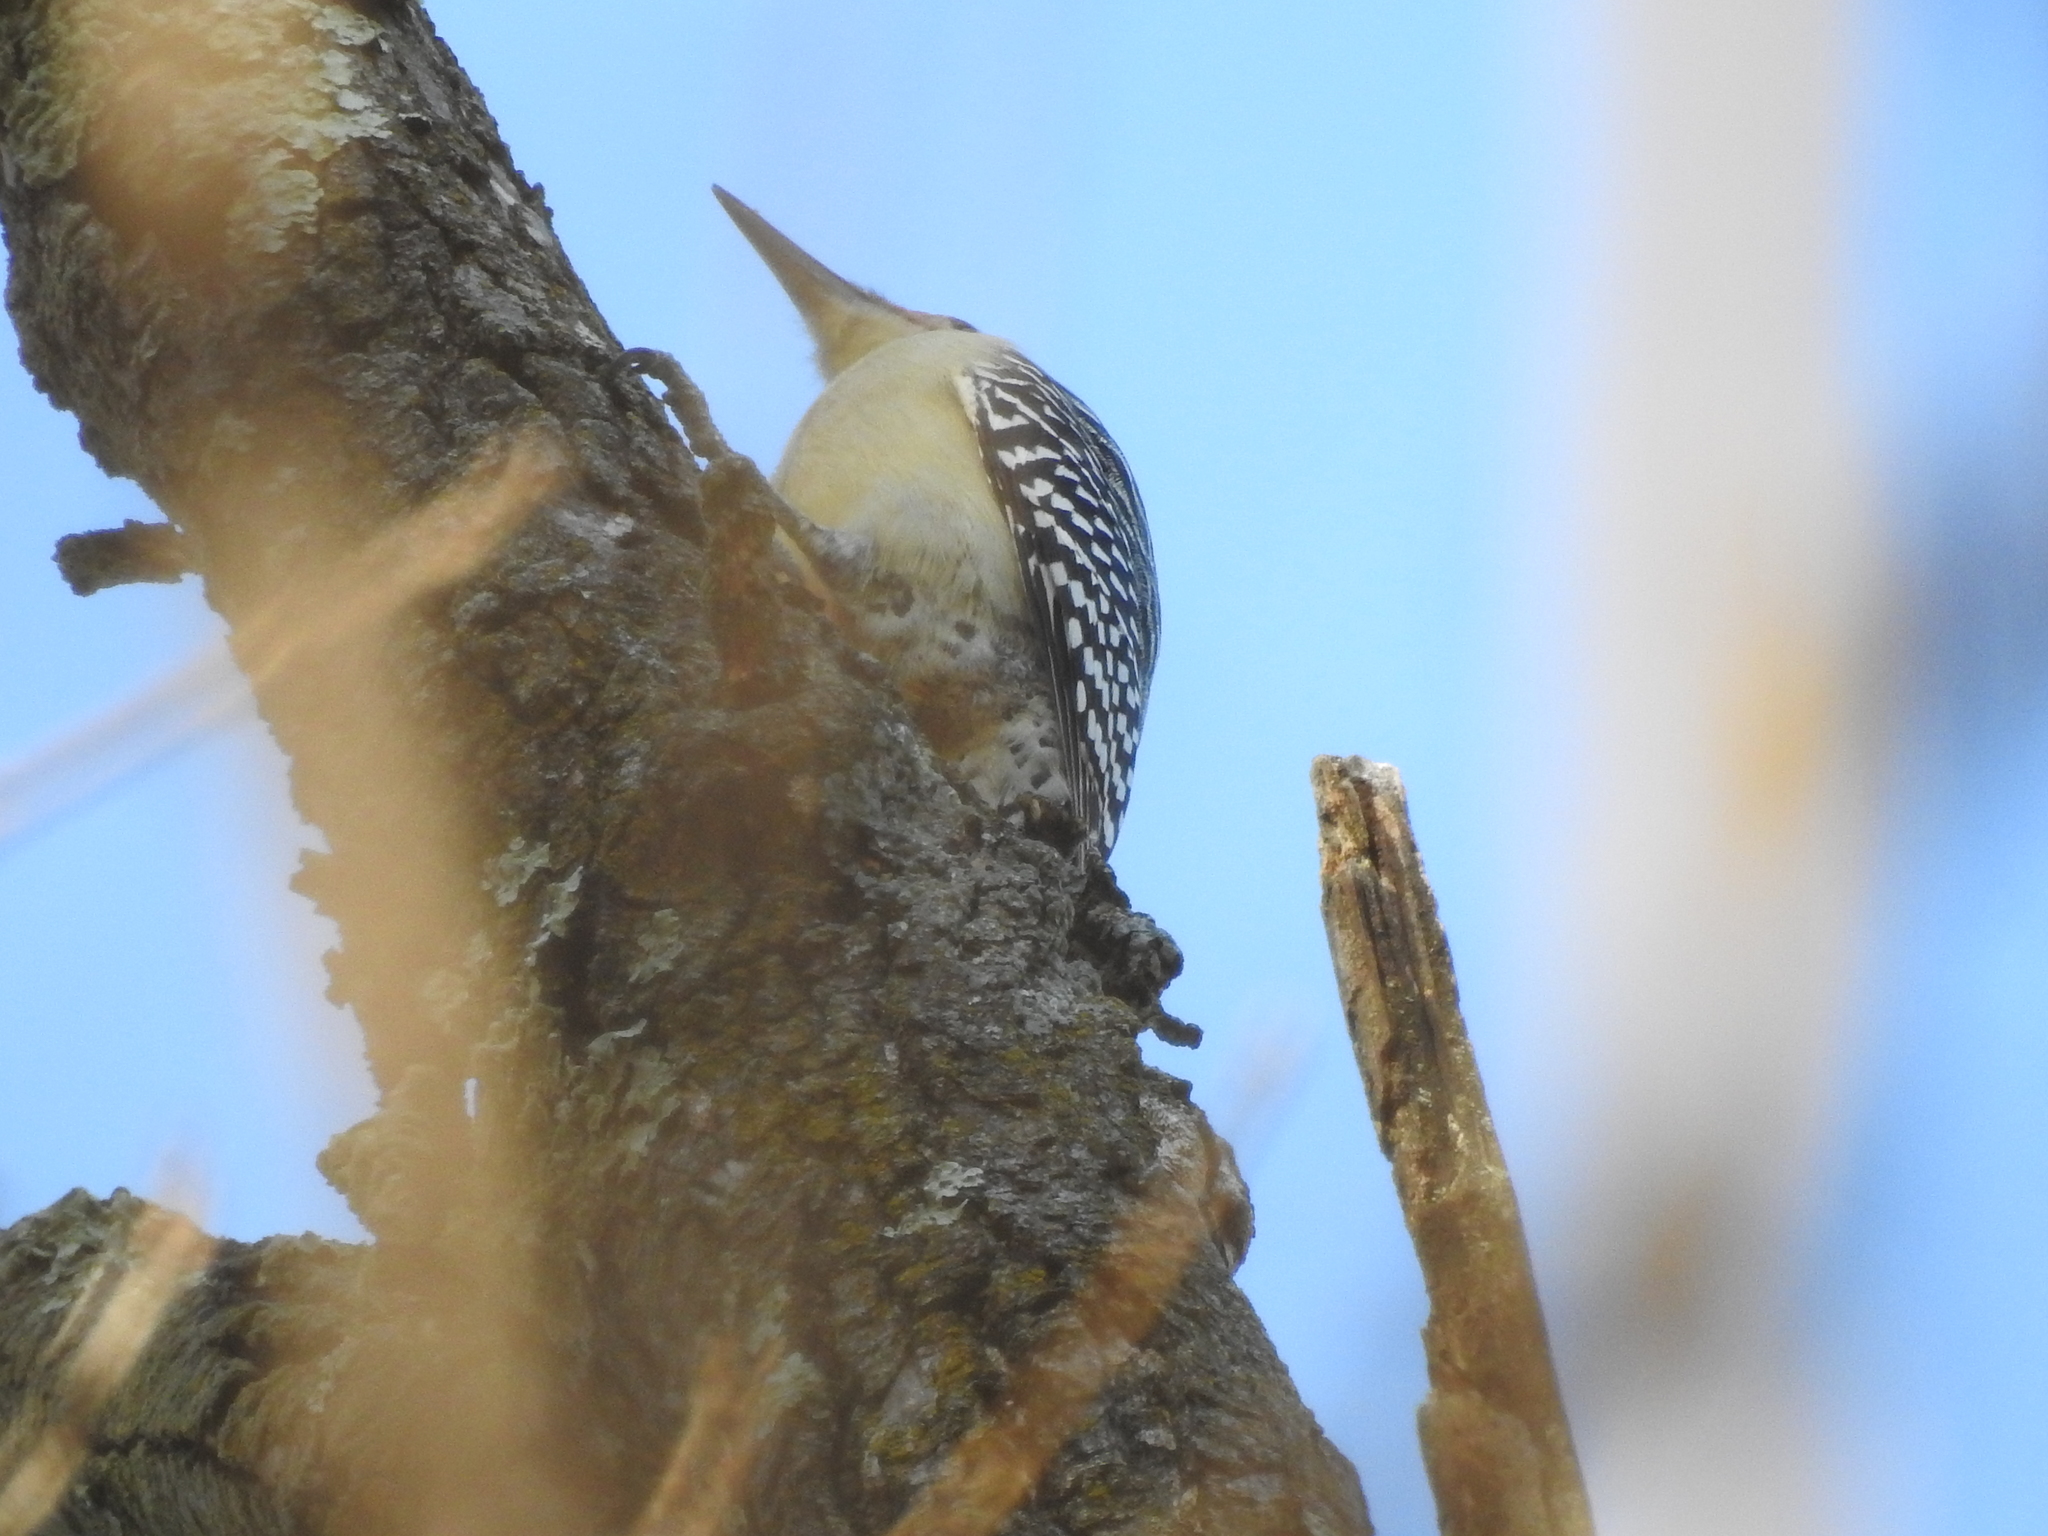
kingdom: Animalia
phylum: Chordata
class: Aves
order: Piciformes
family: Picidae
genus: Melanerpes
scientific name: Melanerpes carolinus
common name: Red-bellied woodpecker
